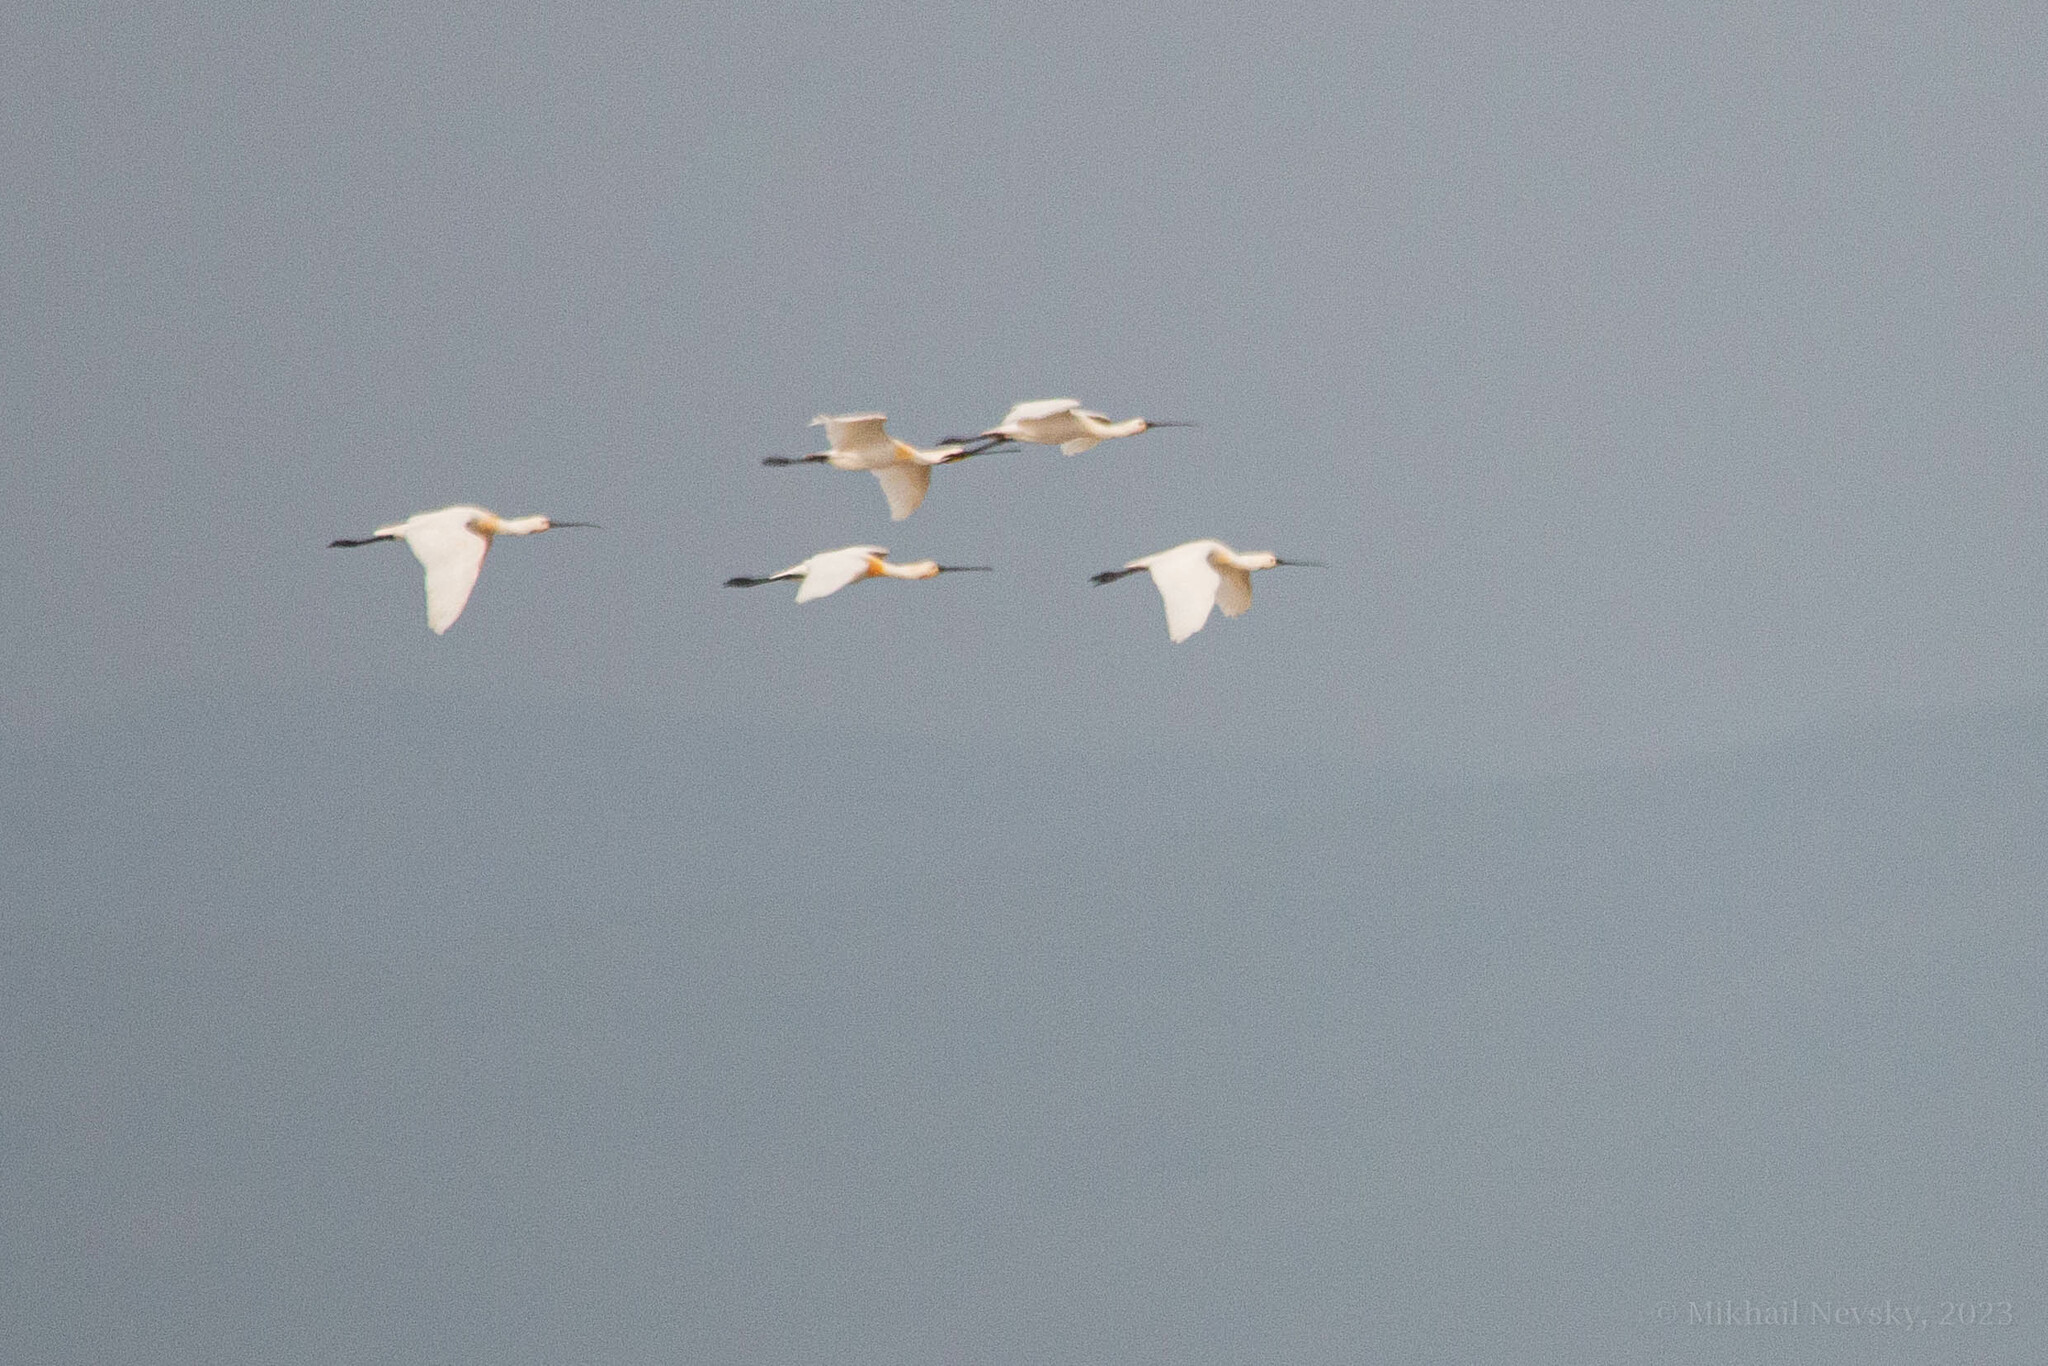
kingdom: Animalia
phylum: Chordata
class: Aves
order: Pelecaniformes
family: Threskiornithidae
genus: Platalea
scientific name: Platalea leucorodia
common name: Eurasian spoonbill
